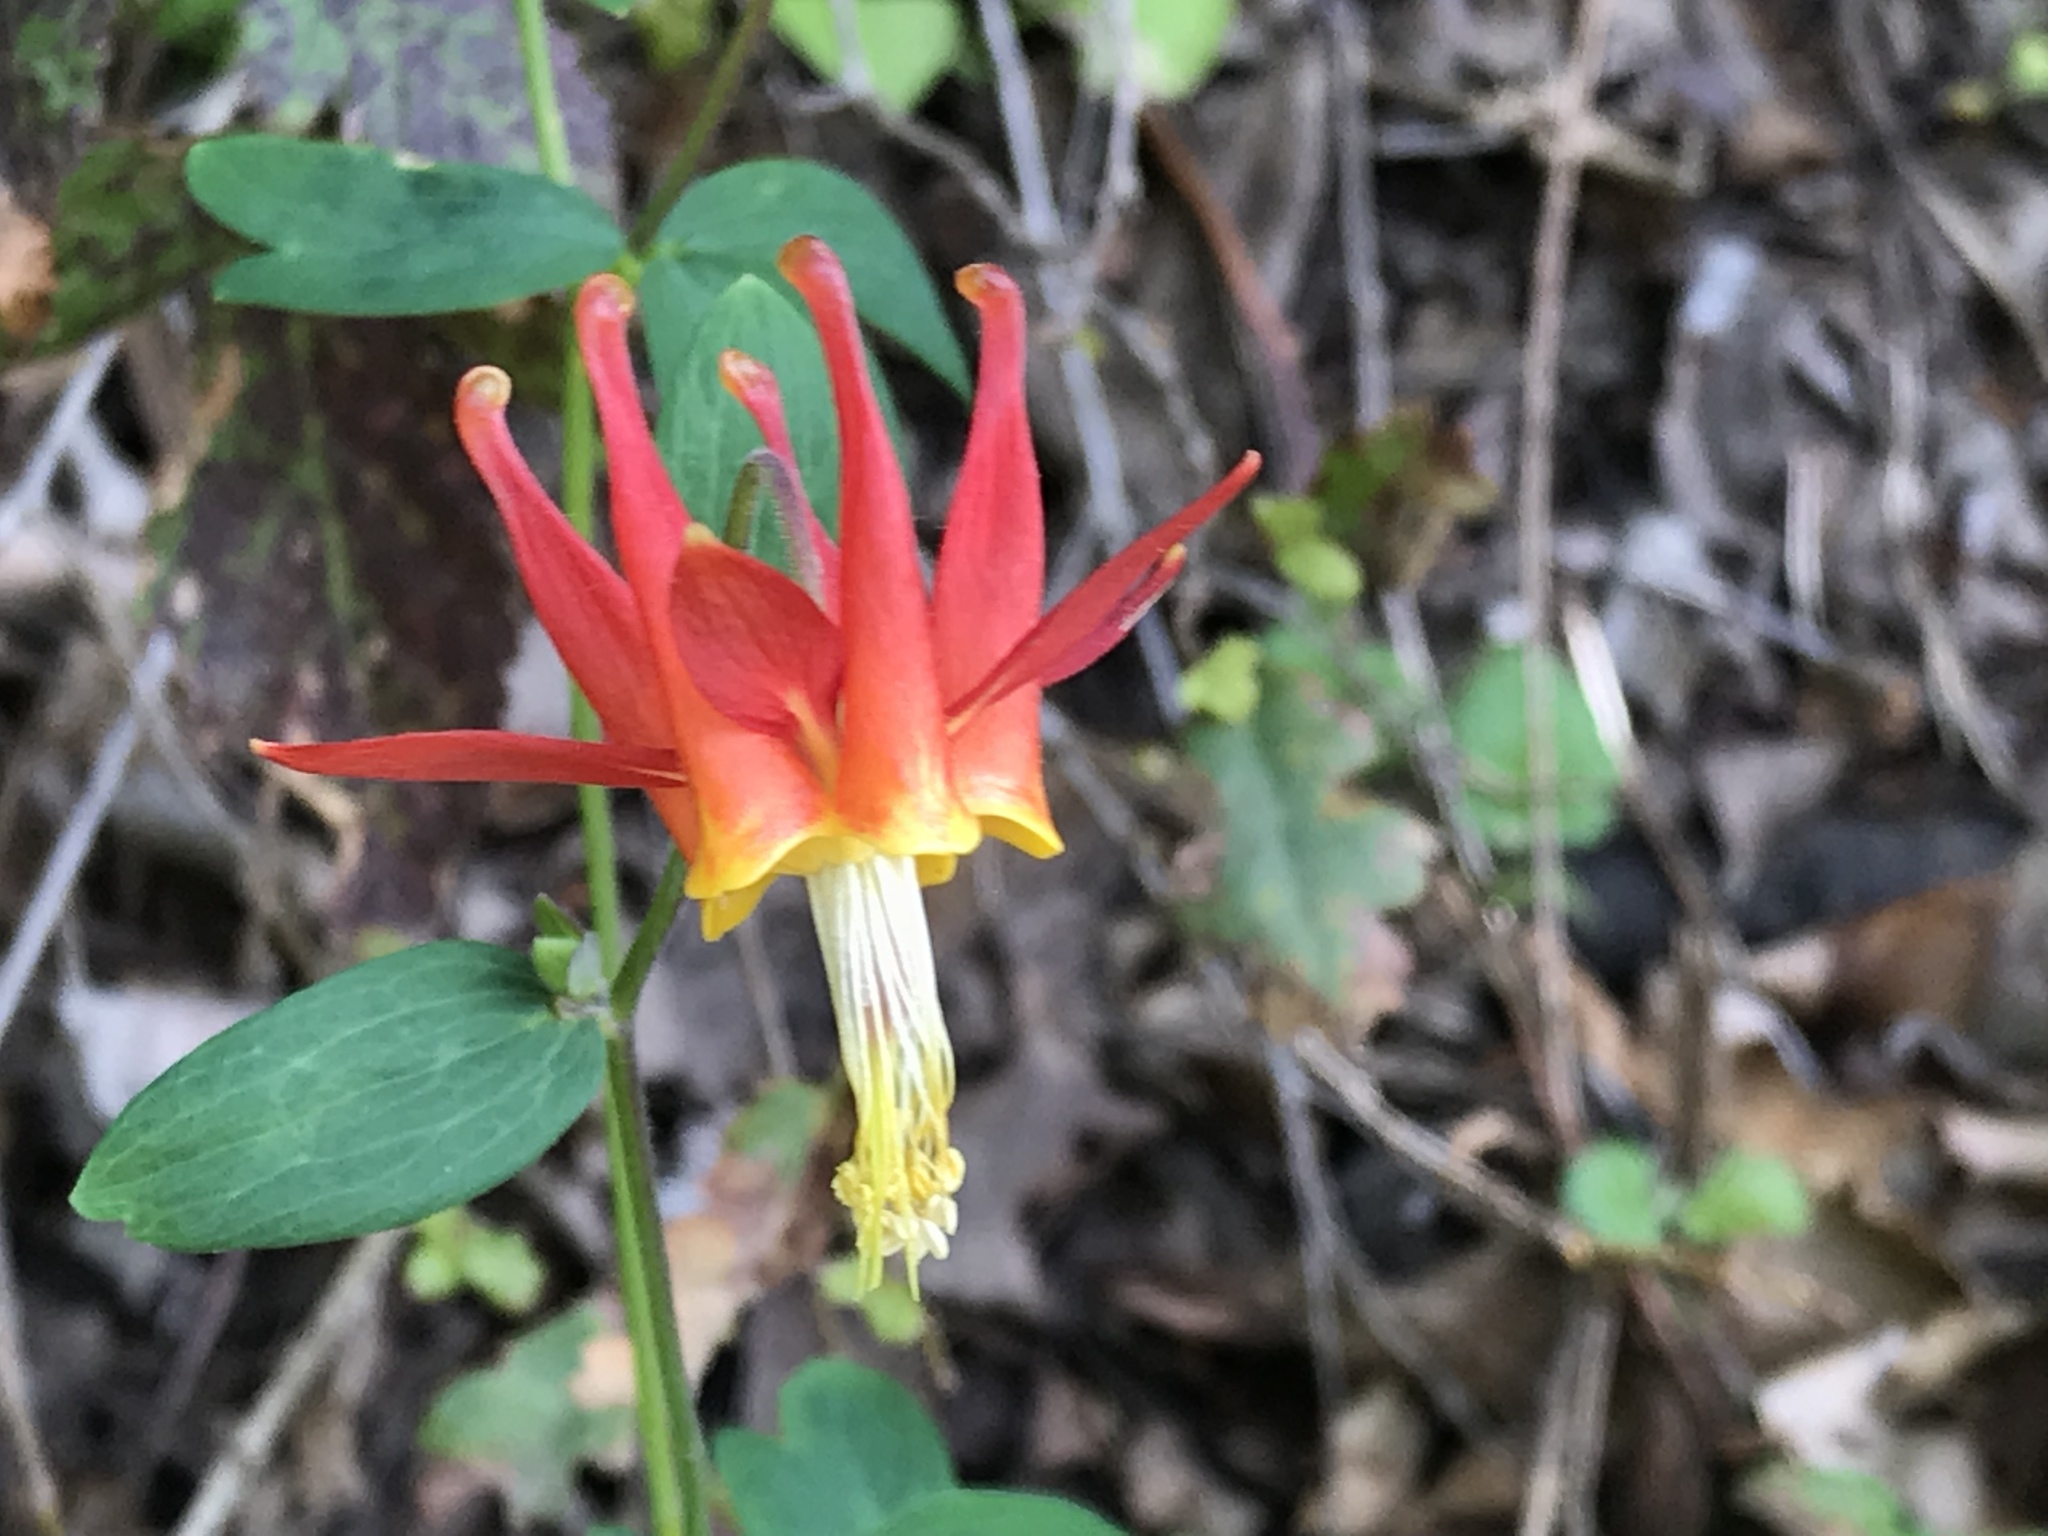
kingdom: Plantae
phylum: Tracheophyta
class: Magnoliopsida
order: Ranunculales
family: Ranunculaceae
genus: Aquilegia
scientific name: Aquilegia formosa
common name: Sitka columbine
